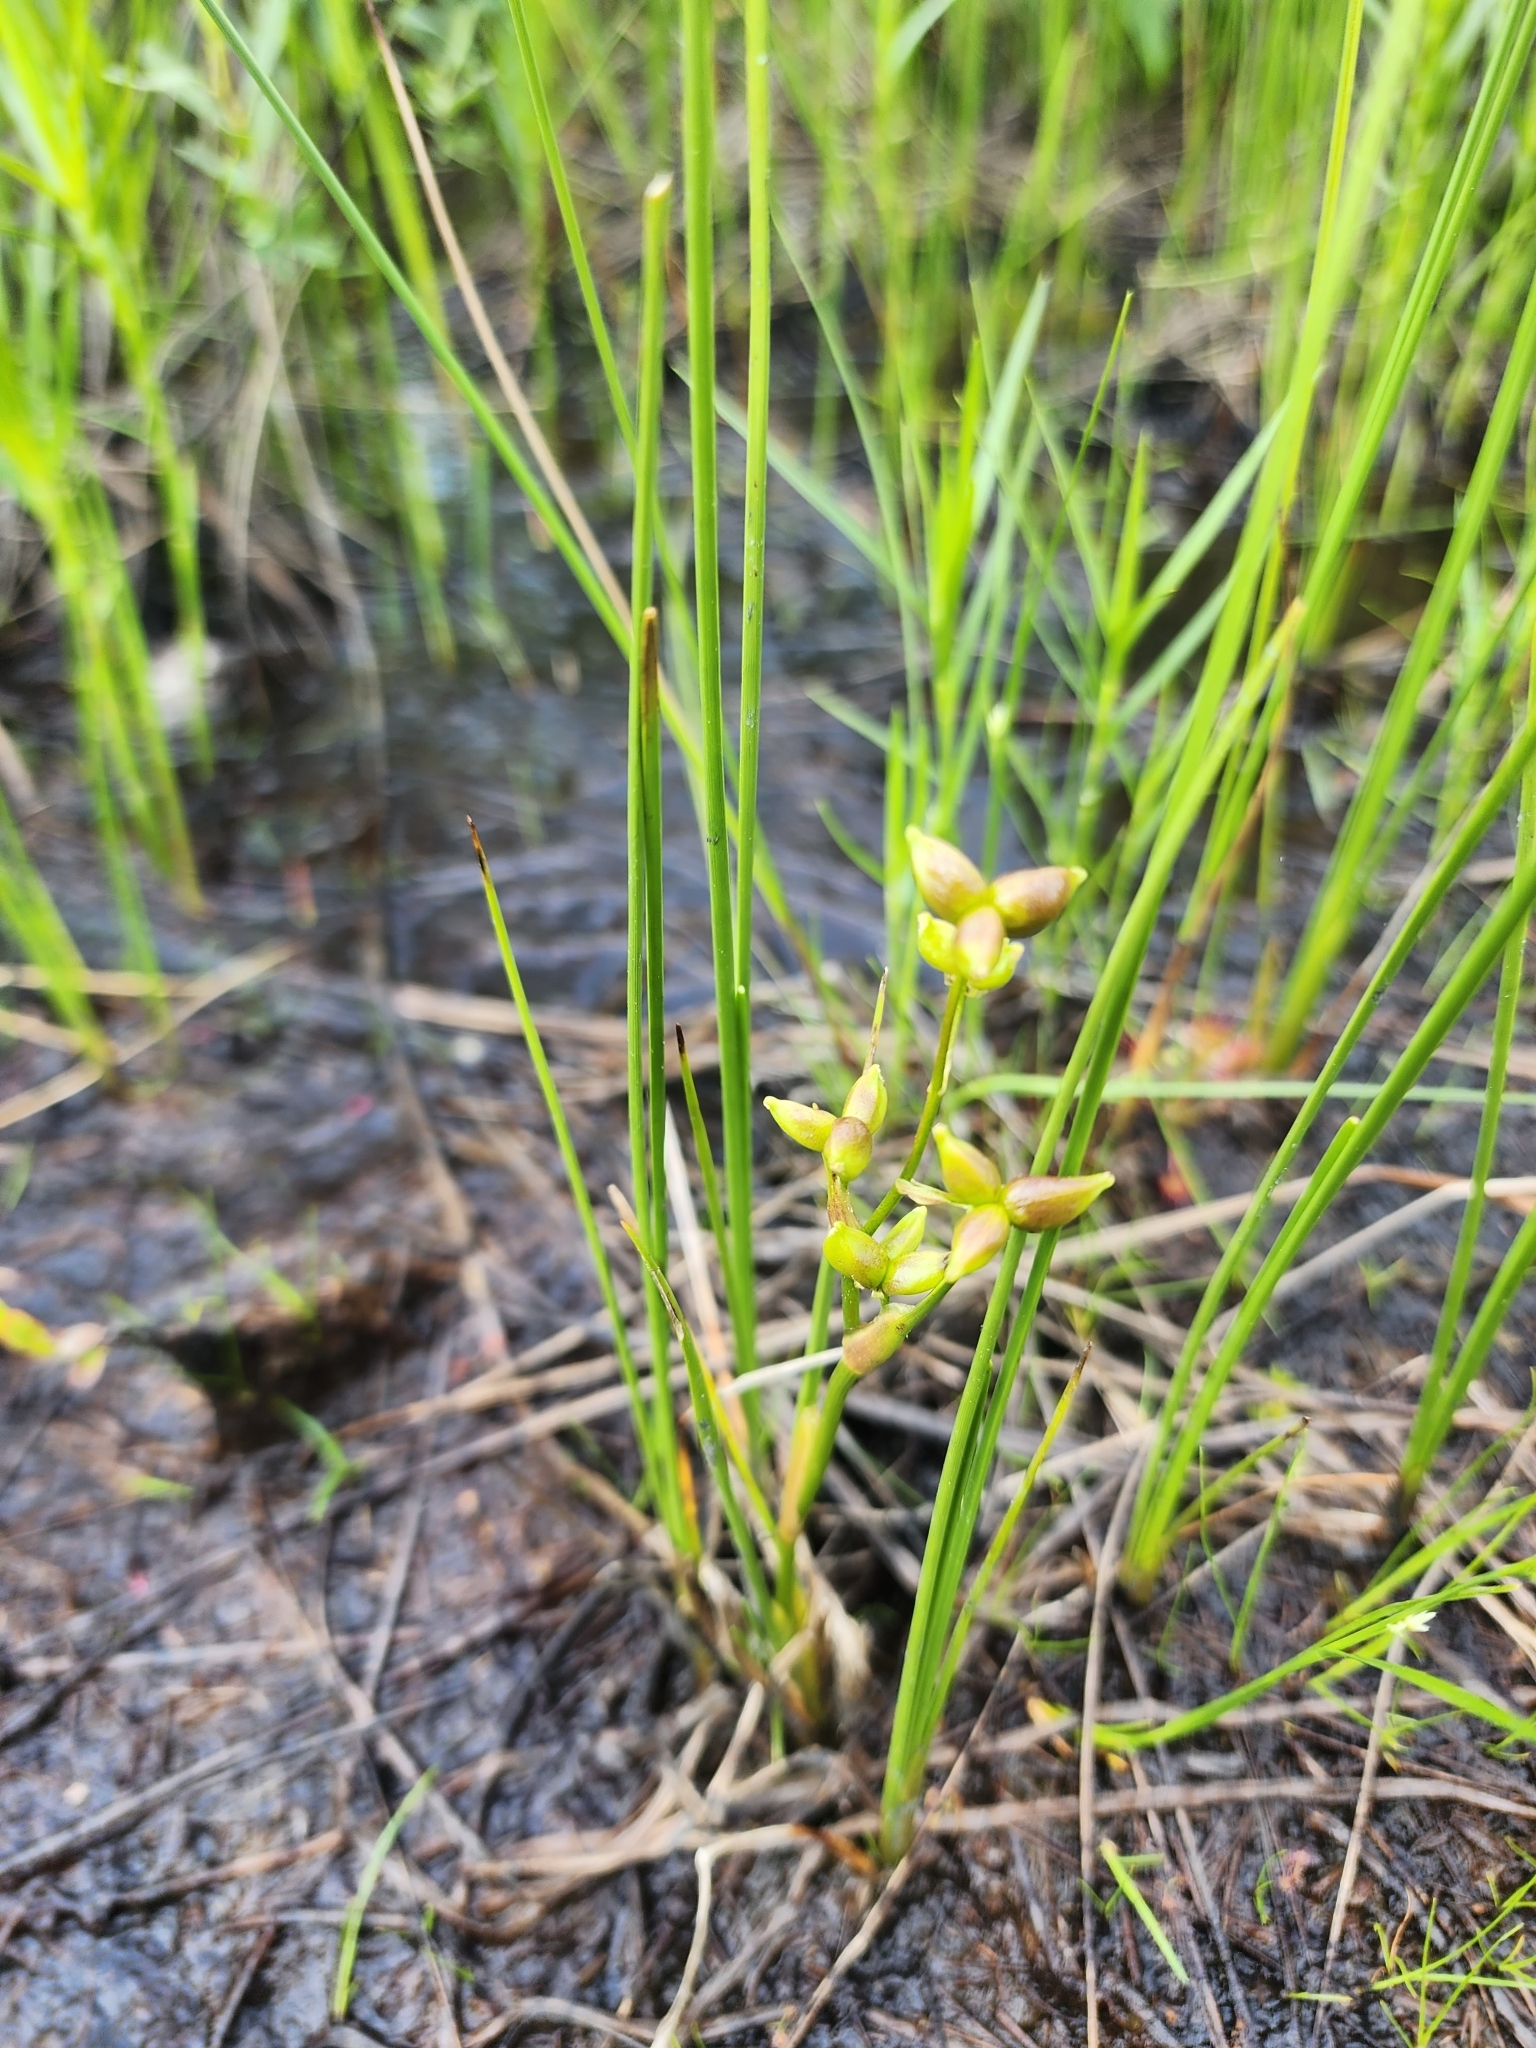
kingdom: Plantae
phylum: Tracheophyta
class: Liliopsida
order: Alismatales
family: Scheuchzeriaceae
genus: Scheuchzeria
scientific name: Scheuchzeria palustris
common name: Rannoch-rush
